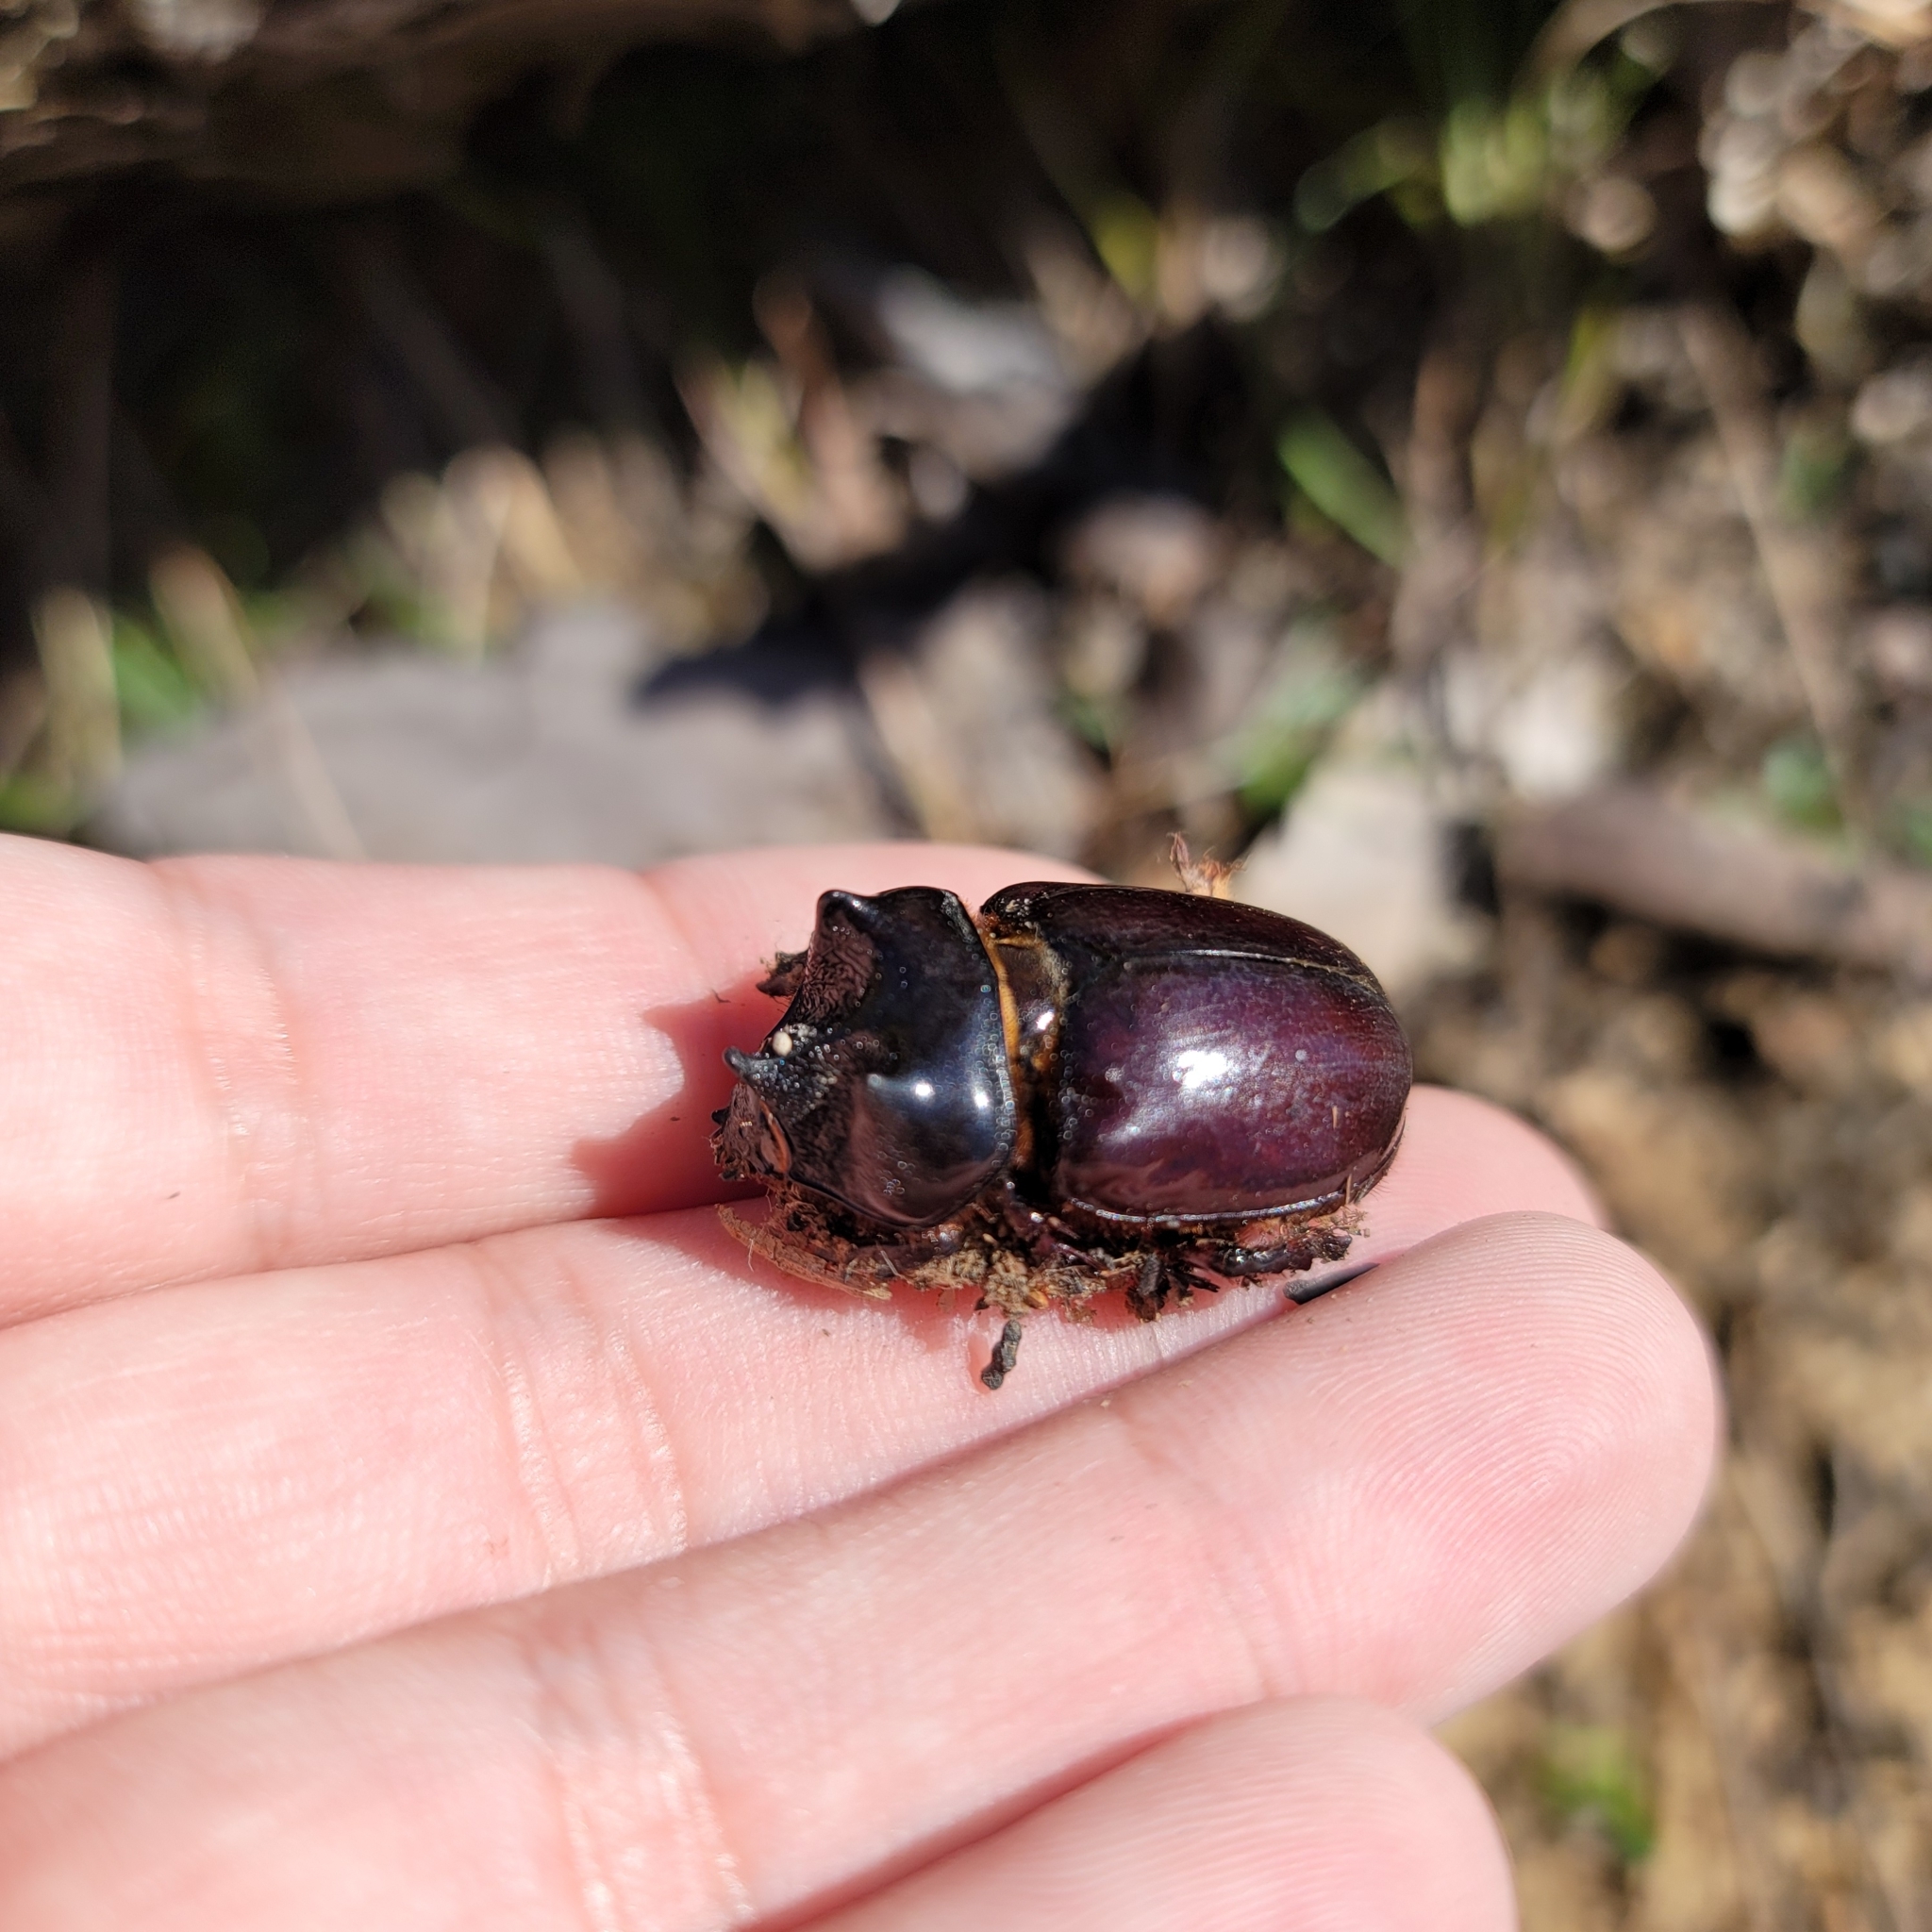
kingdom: Animalia
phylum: Arthropoda
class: Insecta
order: Coleoptera
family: Scarabaeidae
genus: Strategus
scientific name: Strategus antaeus
